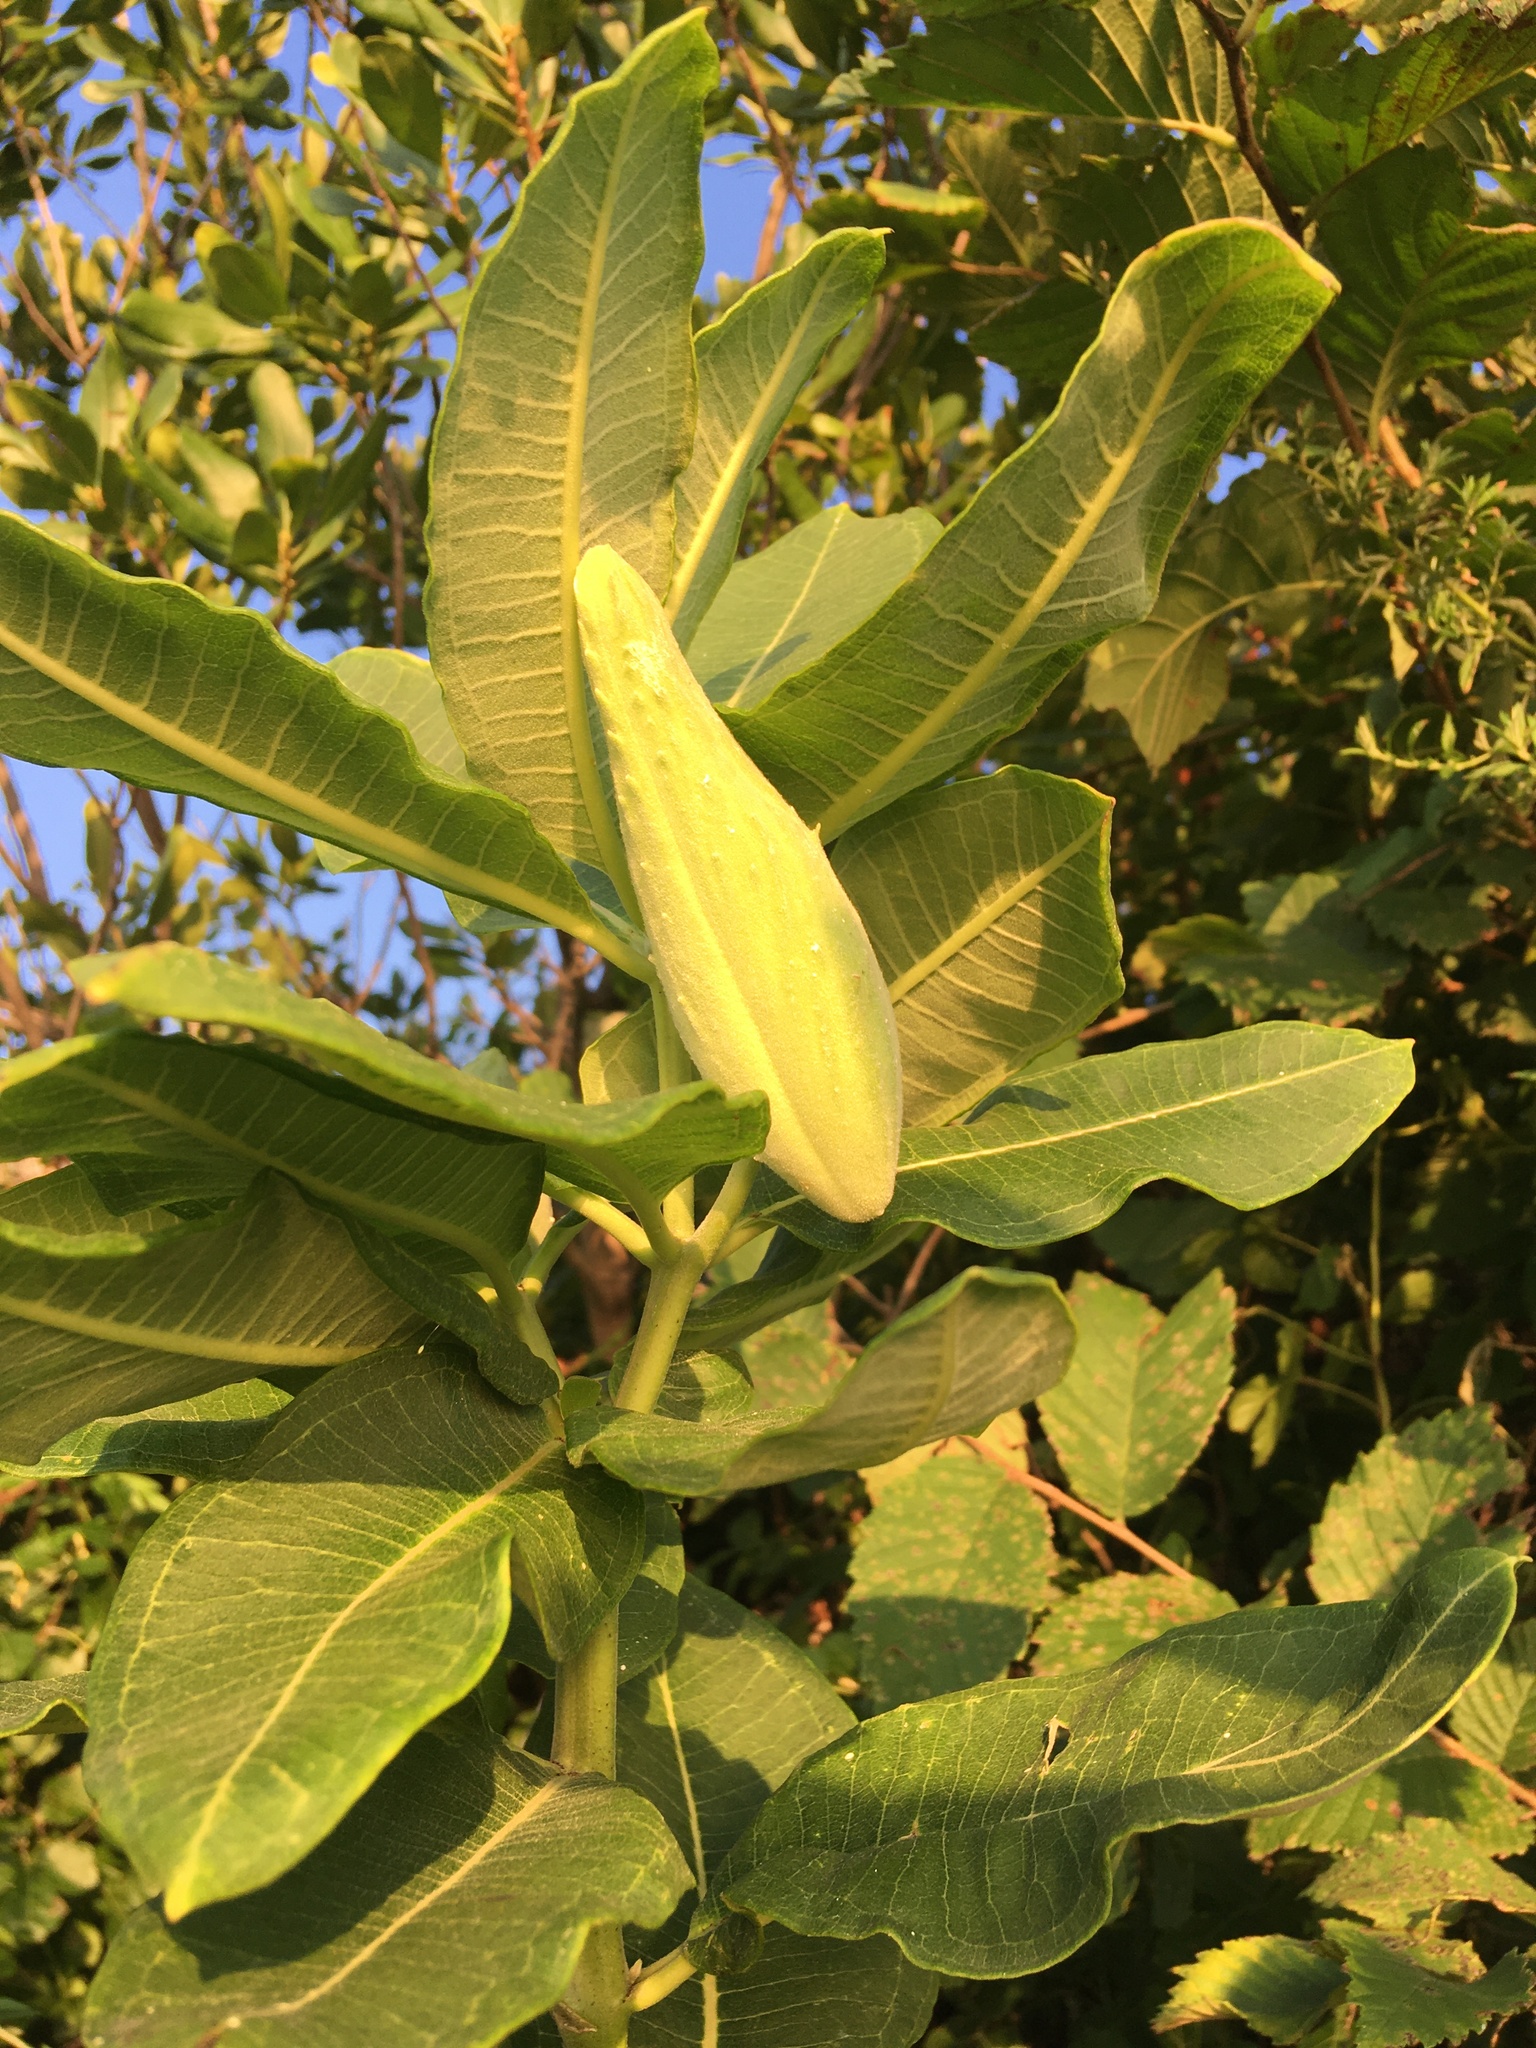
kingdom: Plantae
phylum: Tracheophyta
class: Magnoliopsida
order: Gentianales
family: Apocynaceae
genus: Asclepias
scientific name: Asclepias syriaca
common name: Common milkweed
